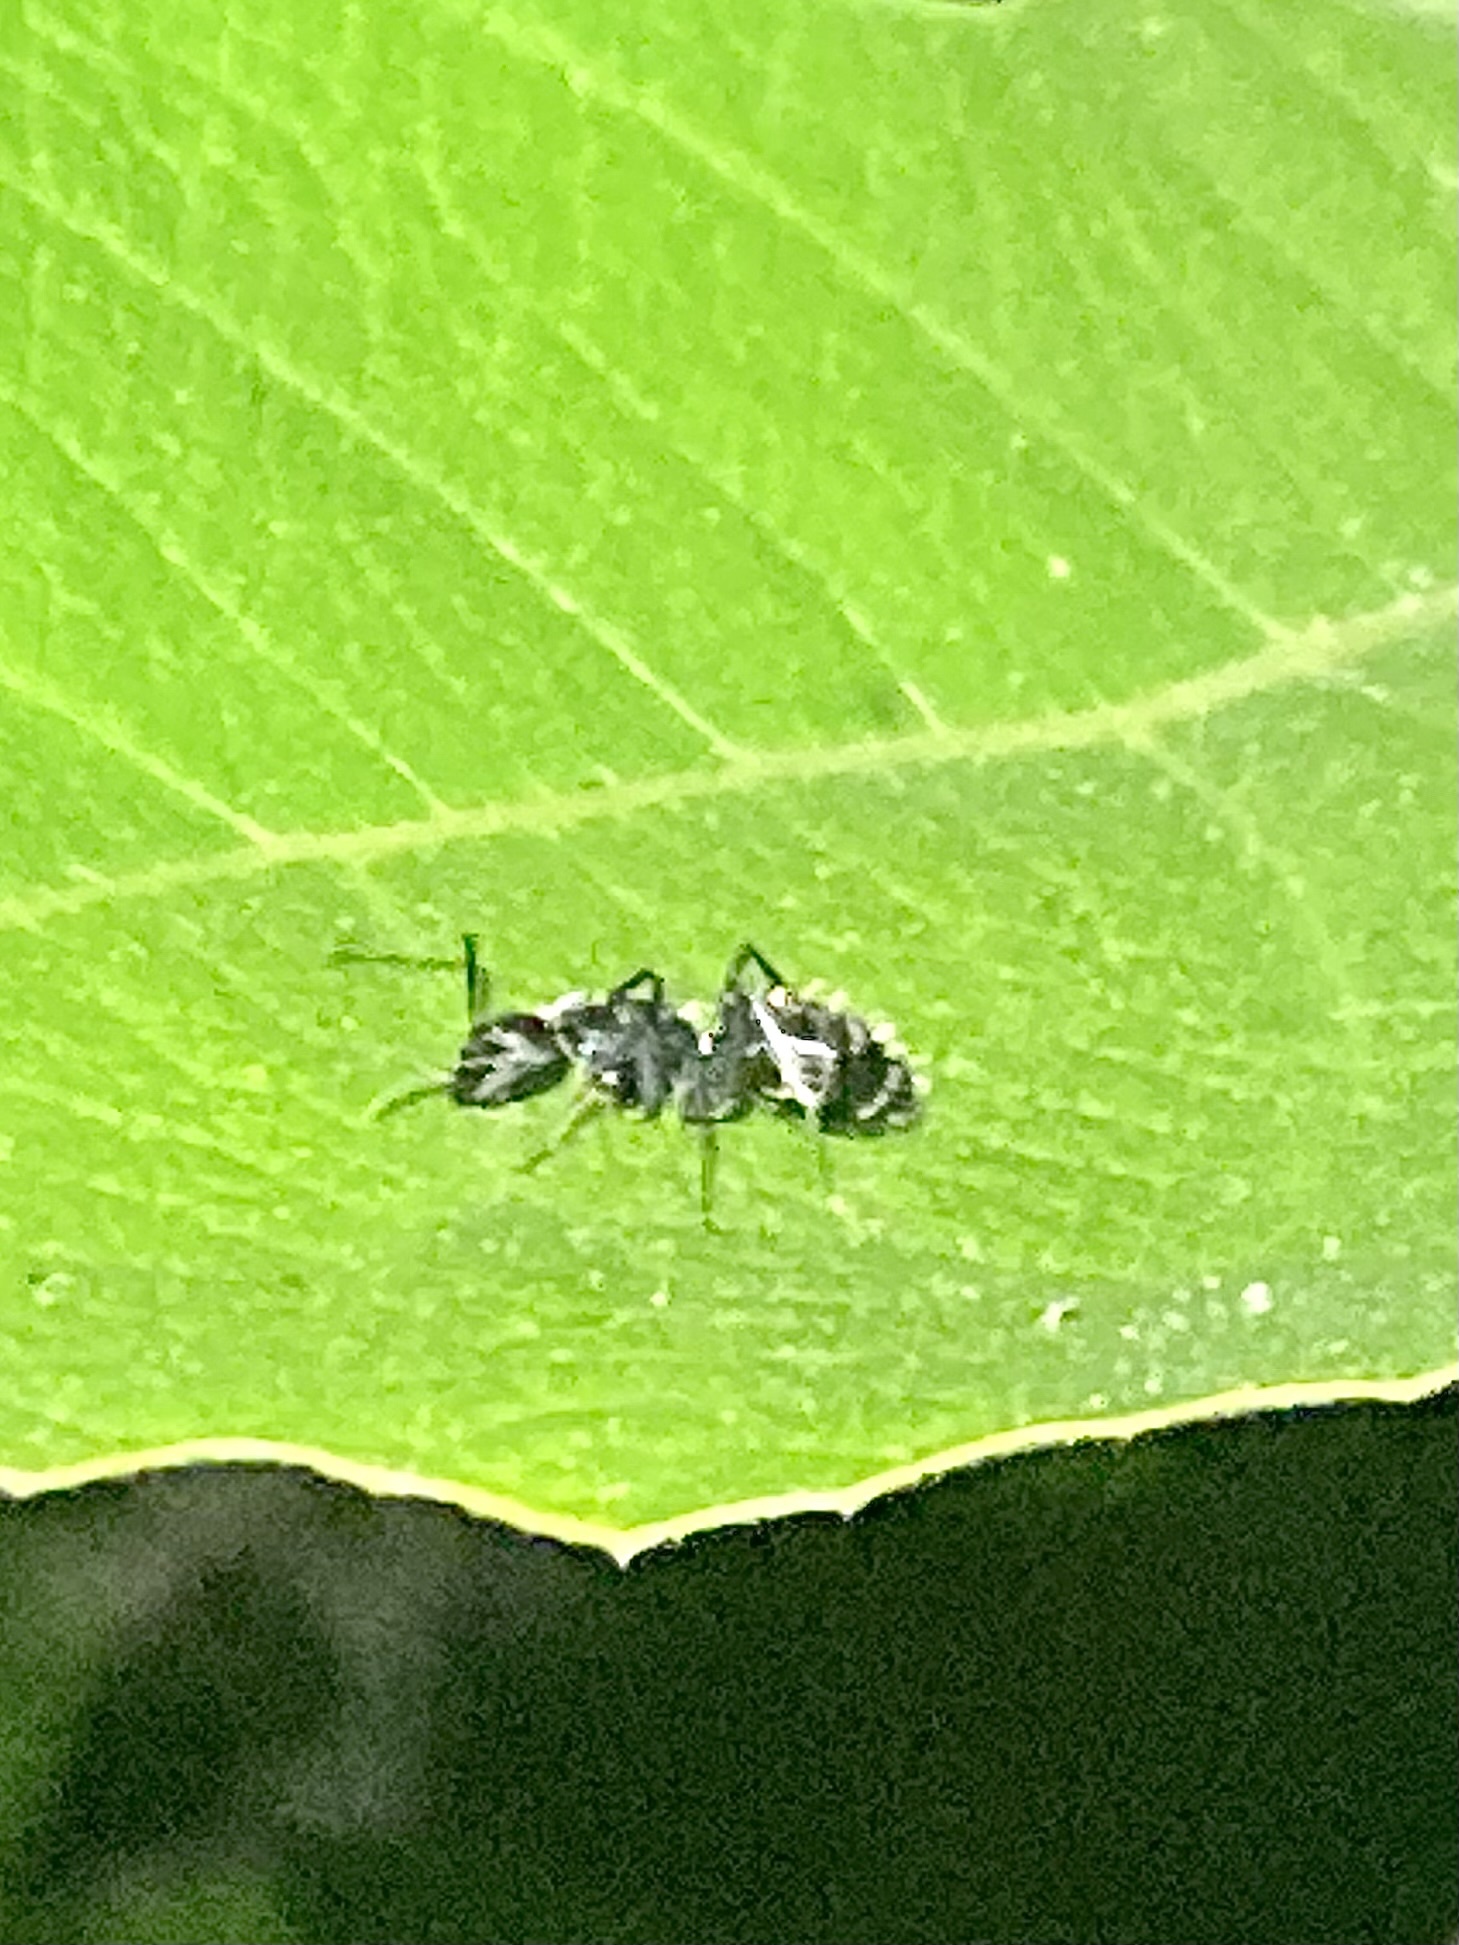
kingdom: Animalia
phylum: Arthropoda
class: Insecta
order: Hymenoptera
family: Formicidae
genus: Camponotus
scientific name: Camponotus vagus
